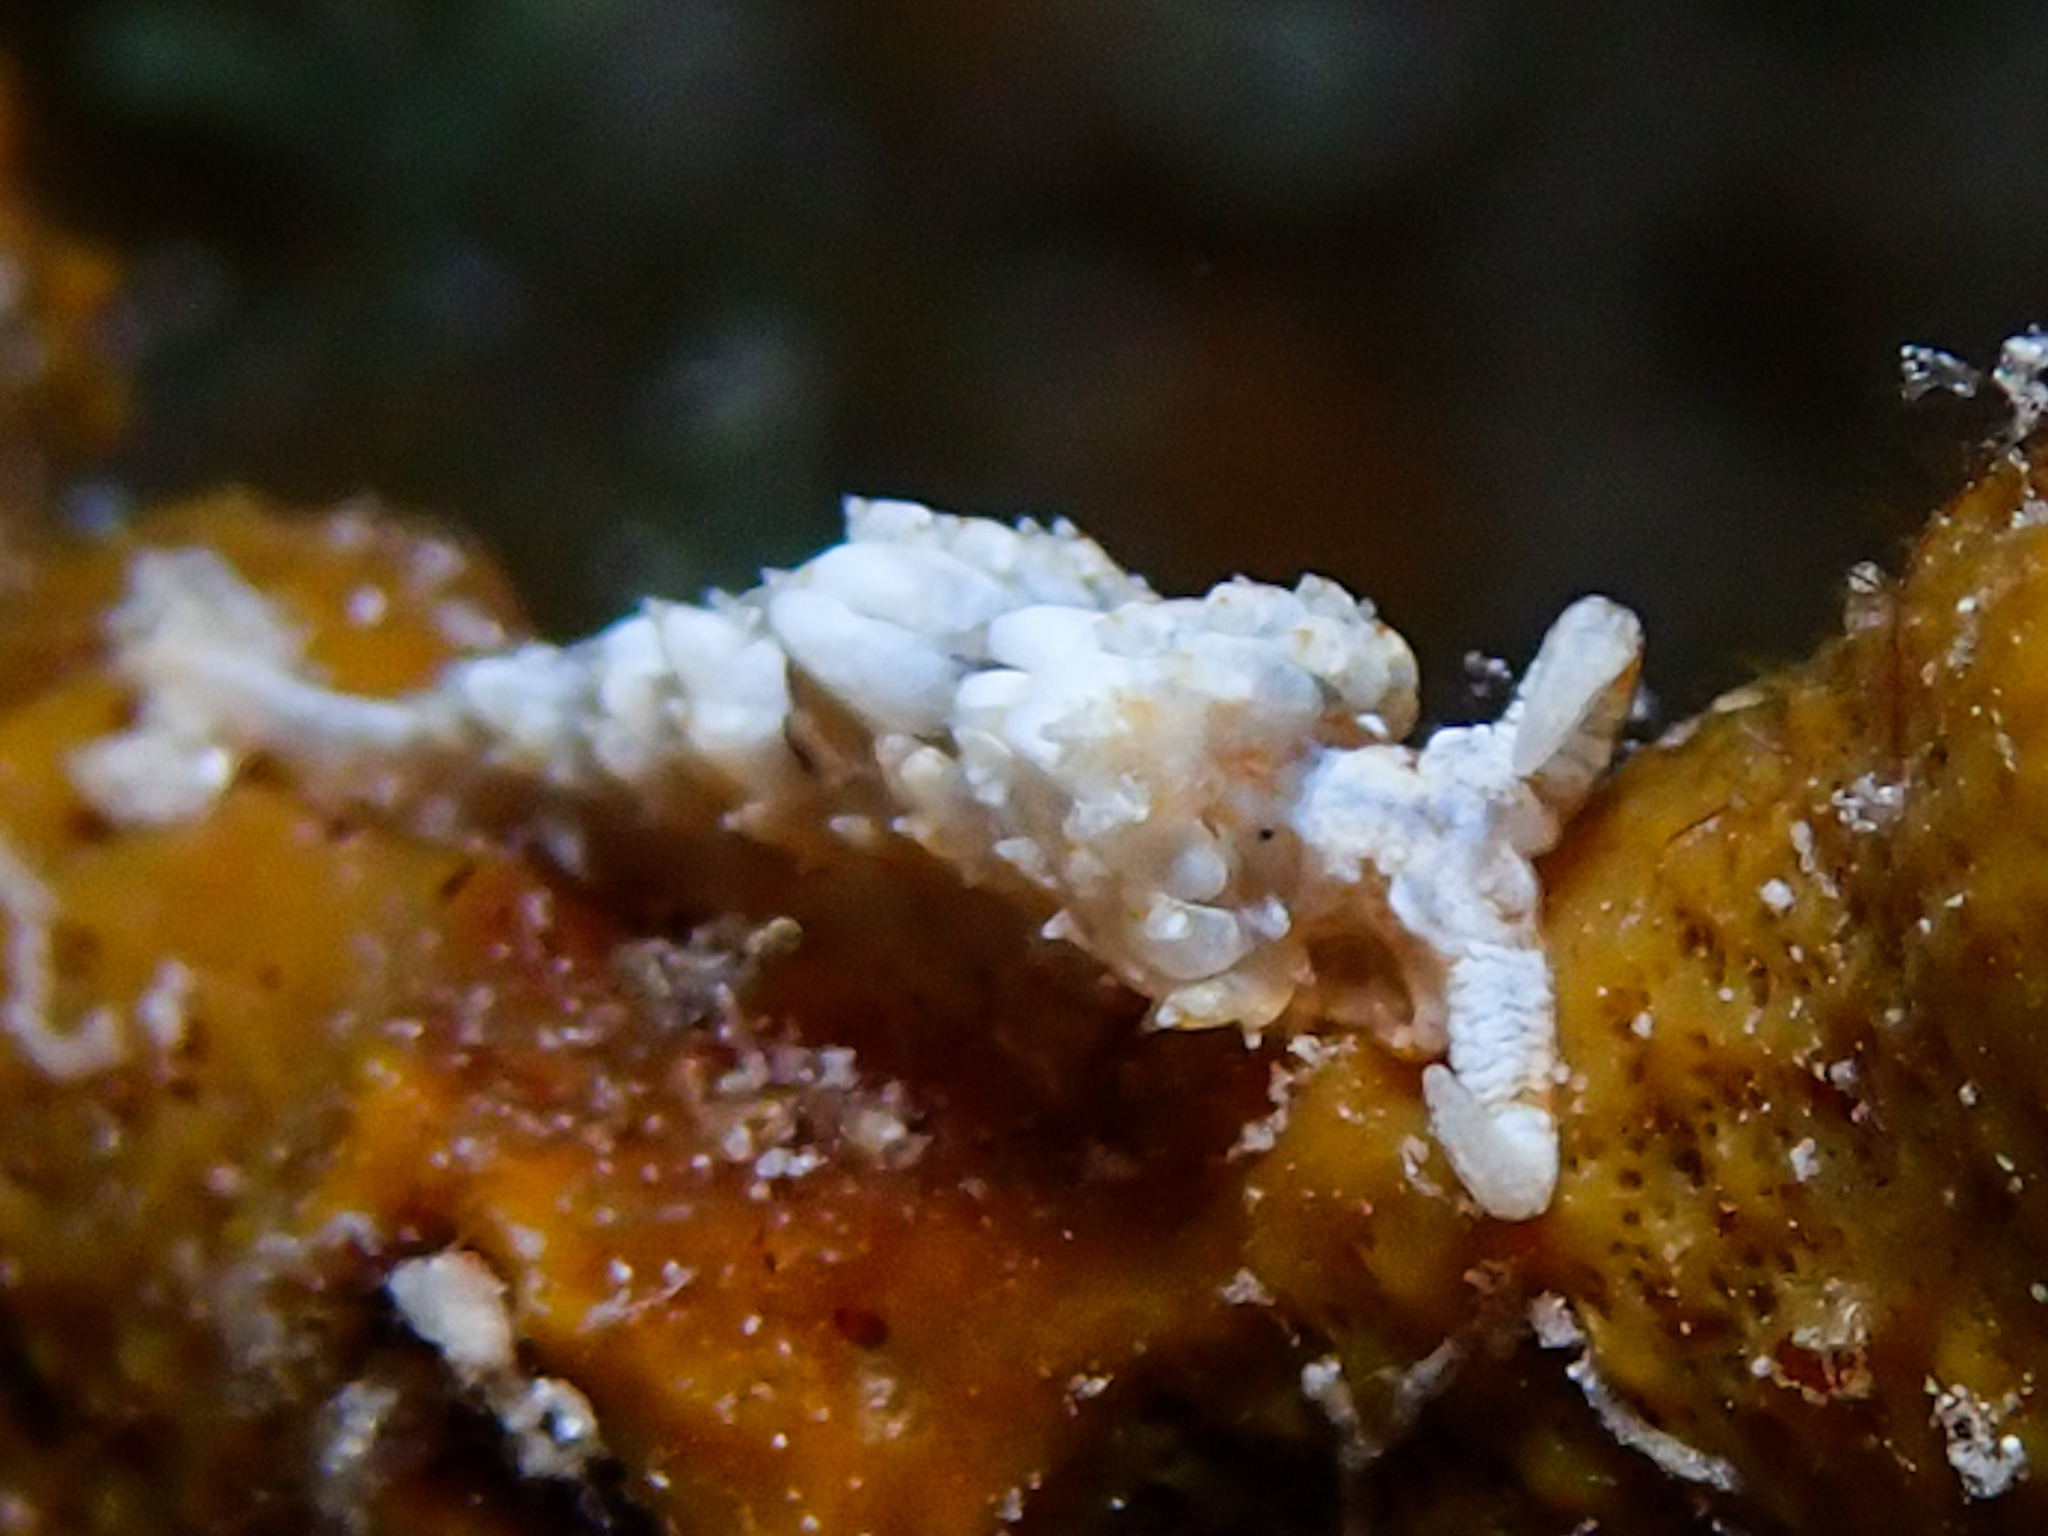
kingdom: Animalia
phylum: Mollusca
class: Gastropoda
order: Nudibranchia
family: Facelinidae
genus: Palisa
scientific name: Palisa papillata
